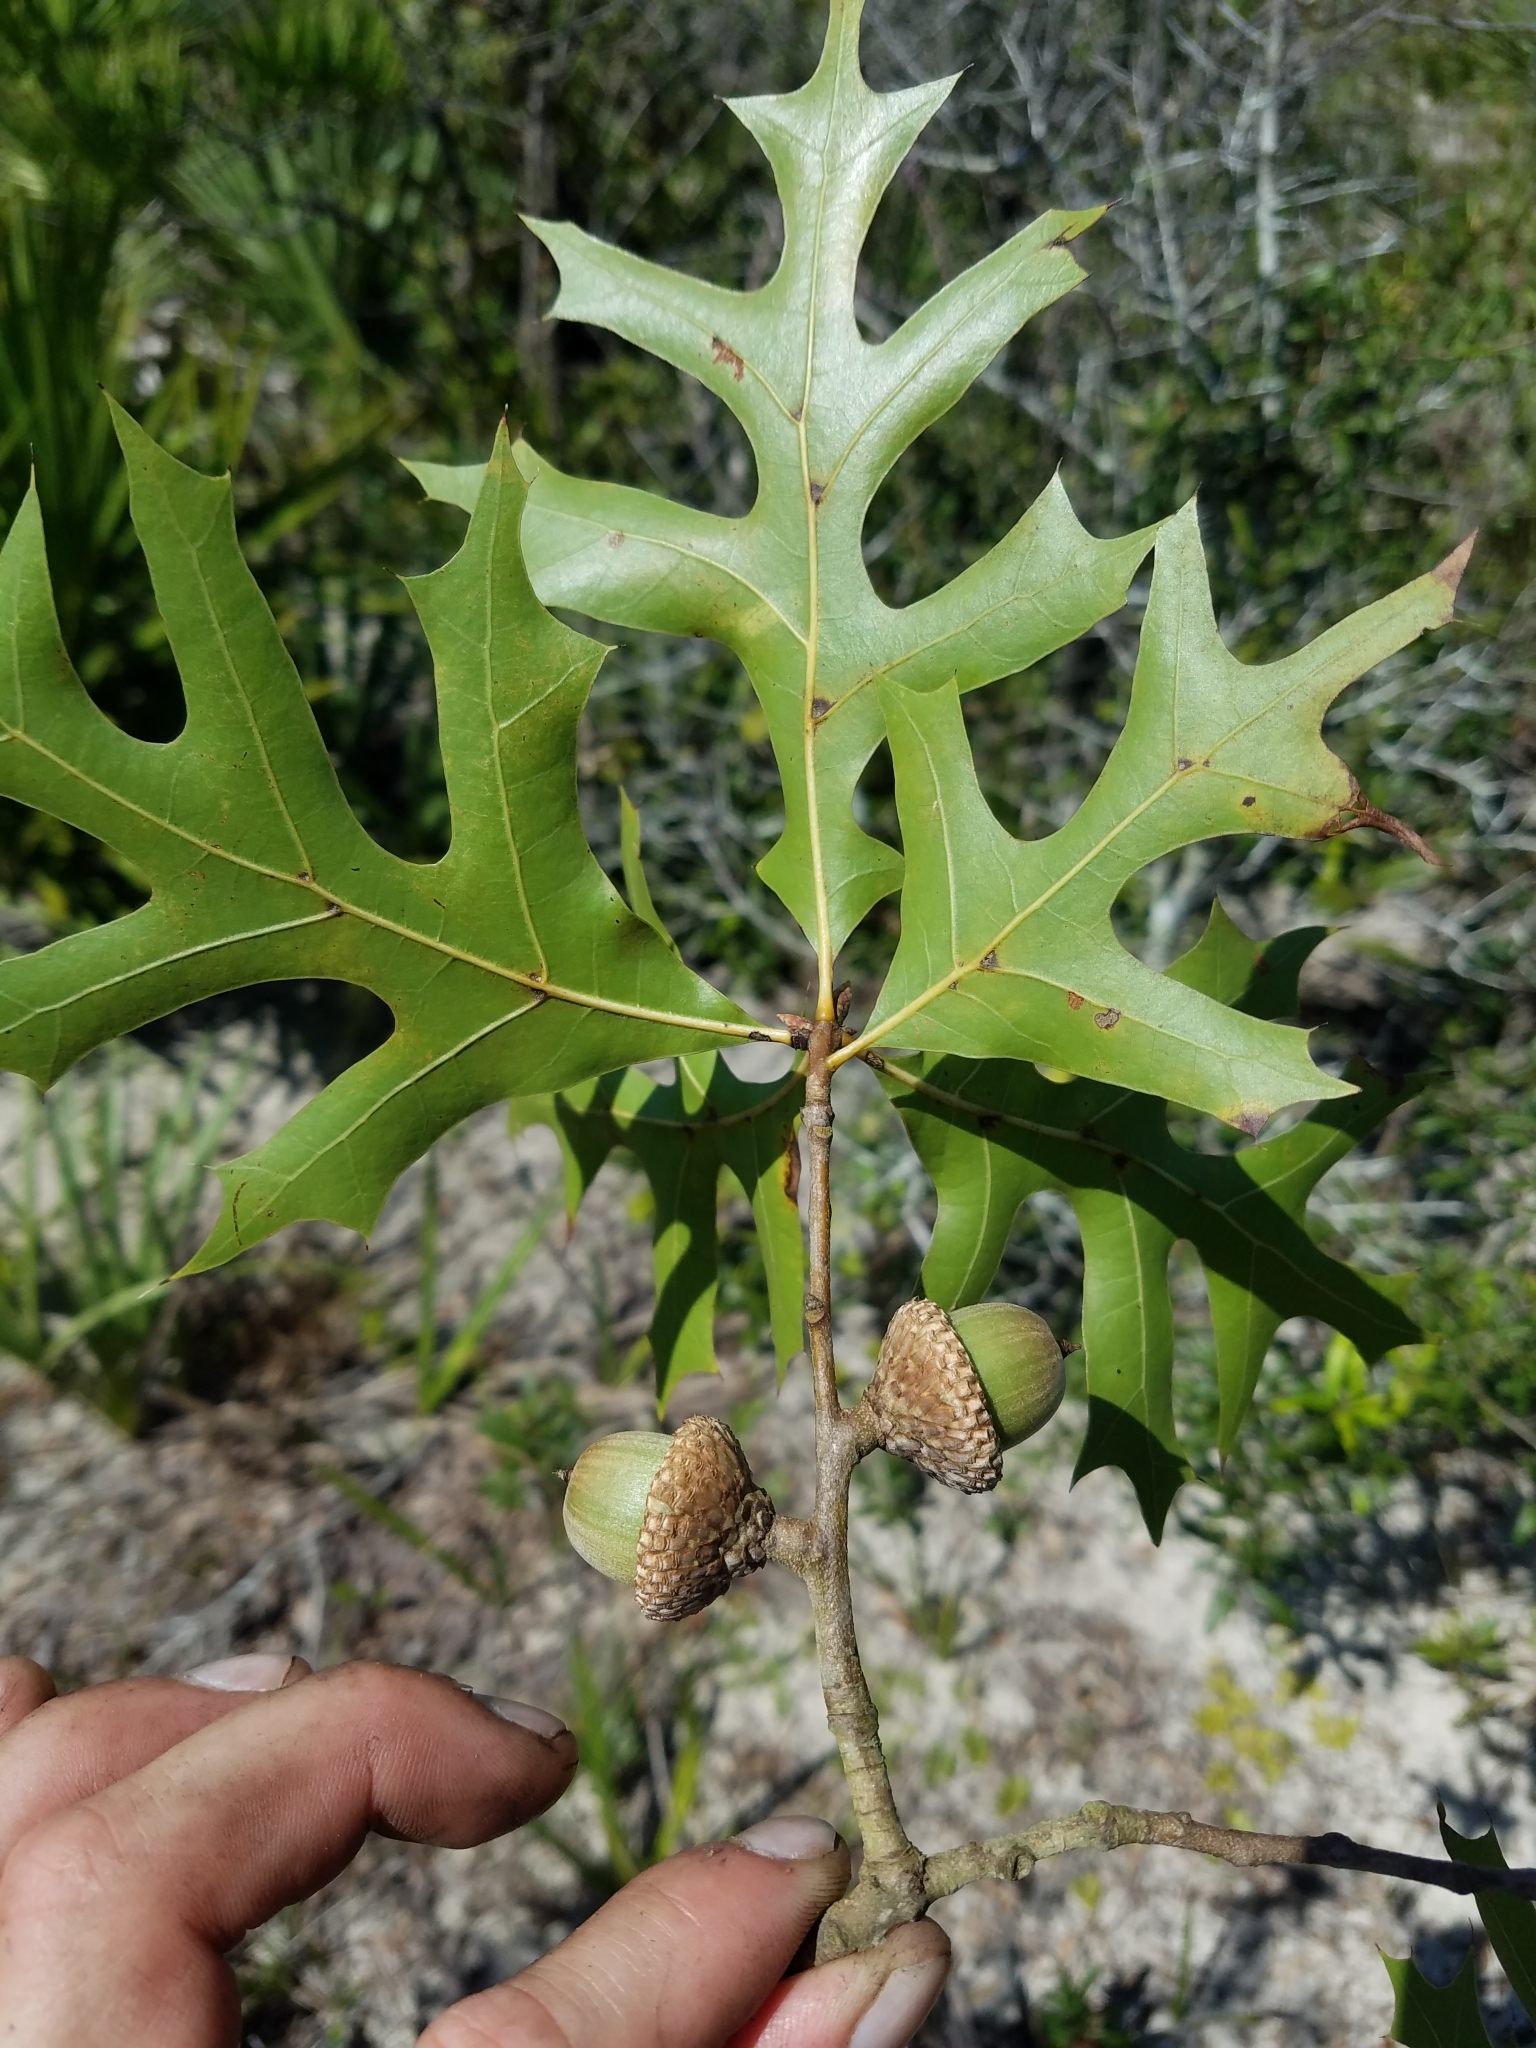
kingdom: Plantae
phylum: Tracheophyta
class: Magnoliopsida
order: Fagales
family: Fagaceae
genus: Quercus
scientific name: Quercus laevis
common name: Turkey oak
